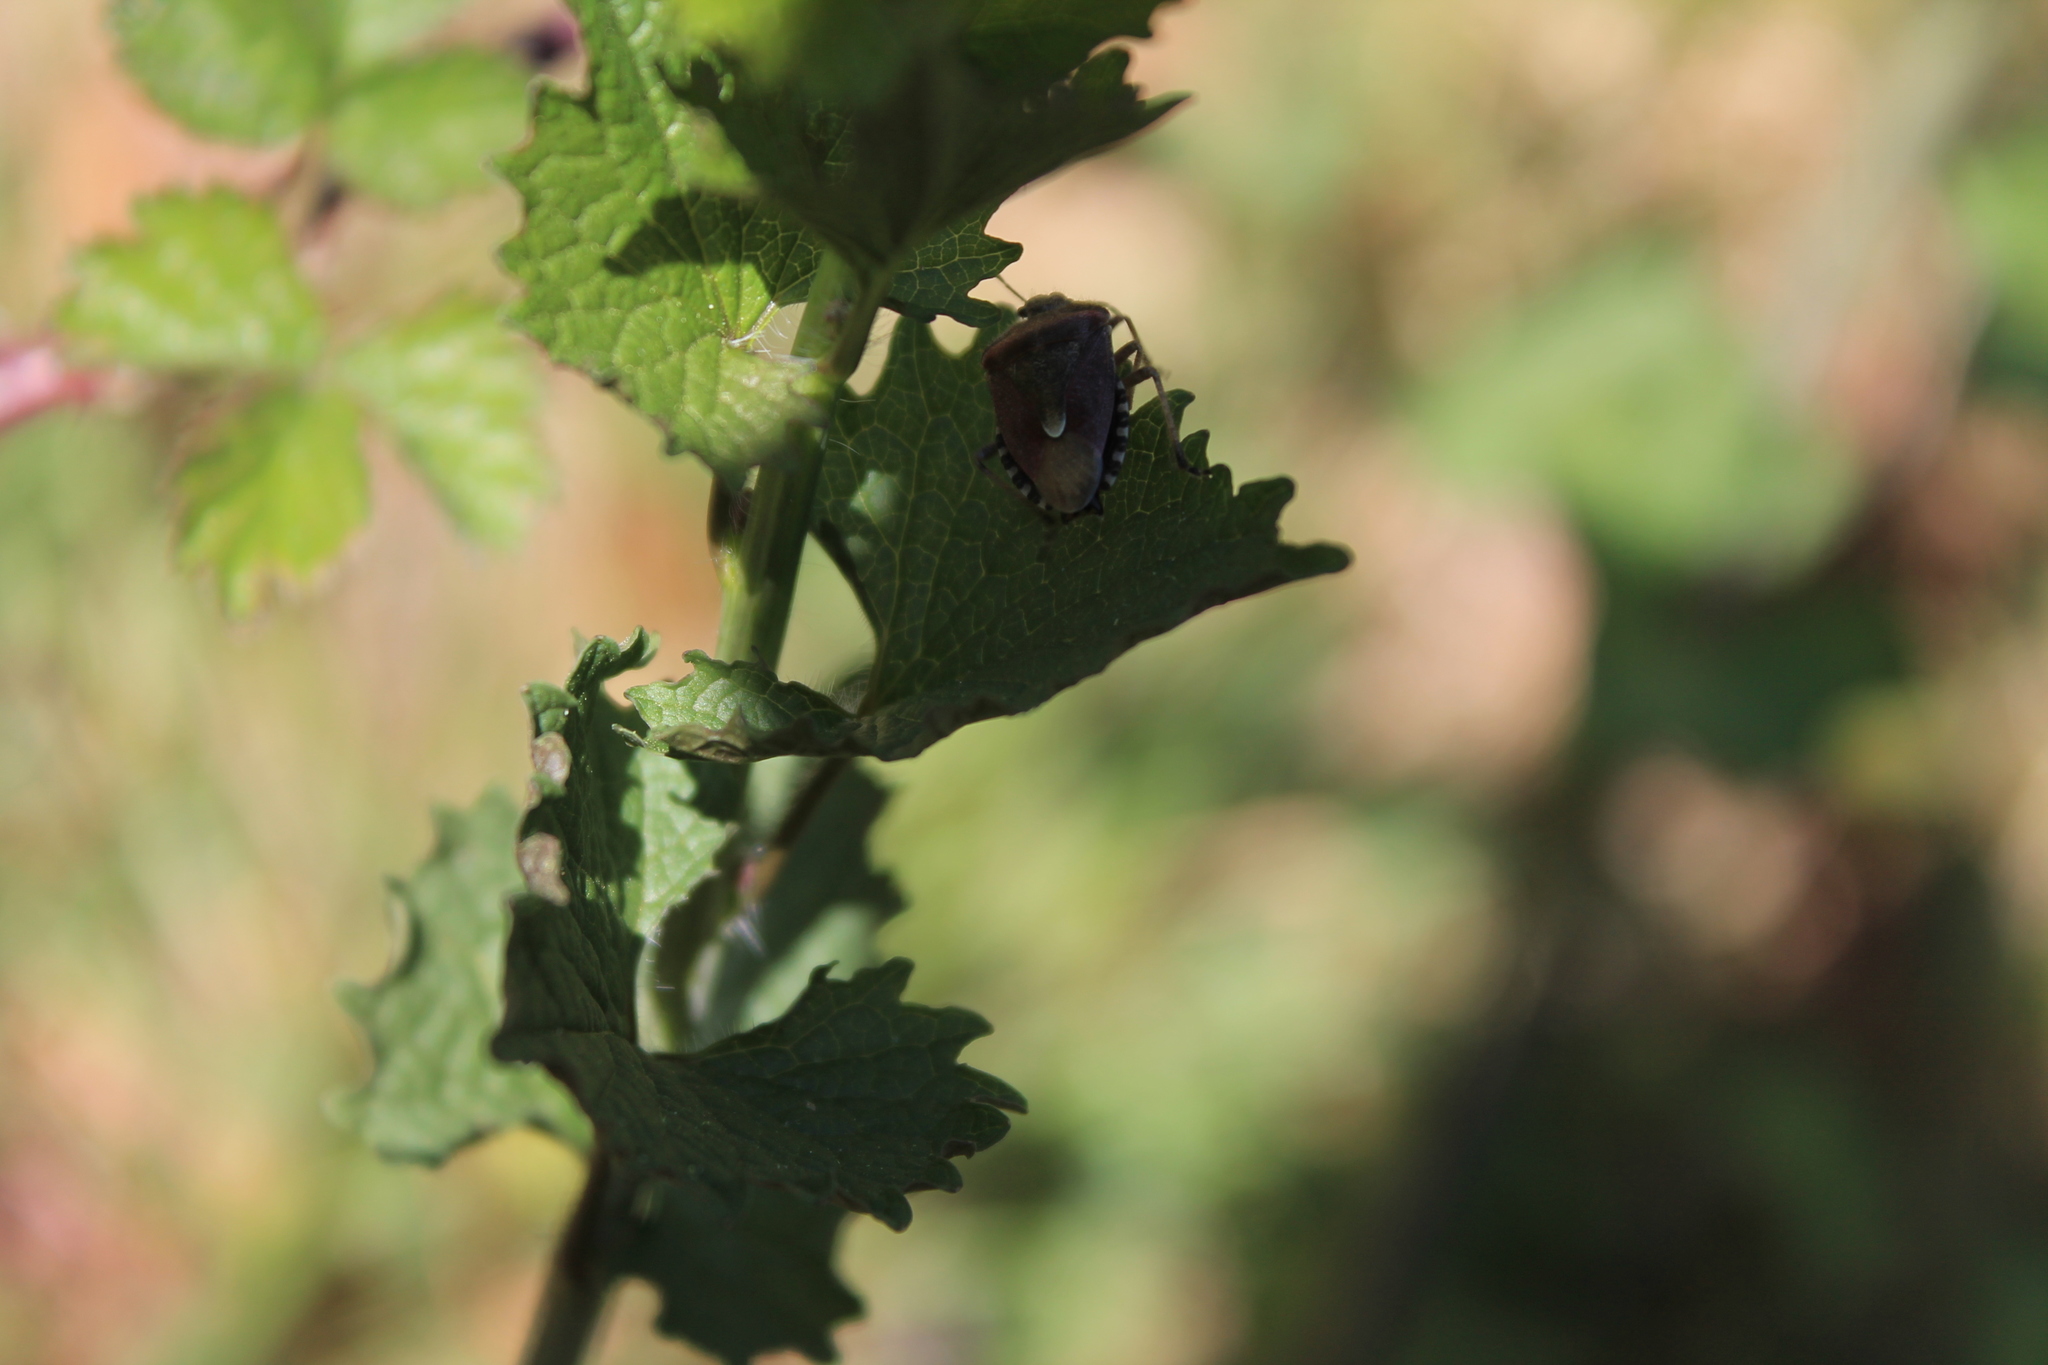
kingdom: Animalia
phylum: Arthropoda
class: Insecta
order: Hemiptera
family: Pentatomidae
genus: Dolycoris
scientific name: Dolycoris baccarum
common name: Sloe bug
